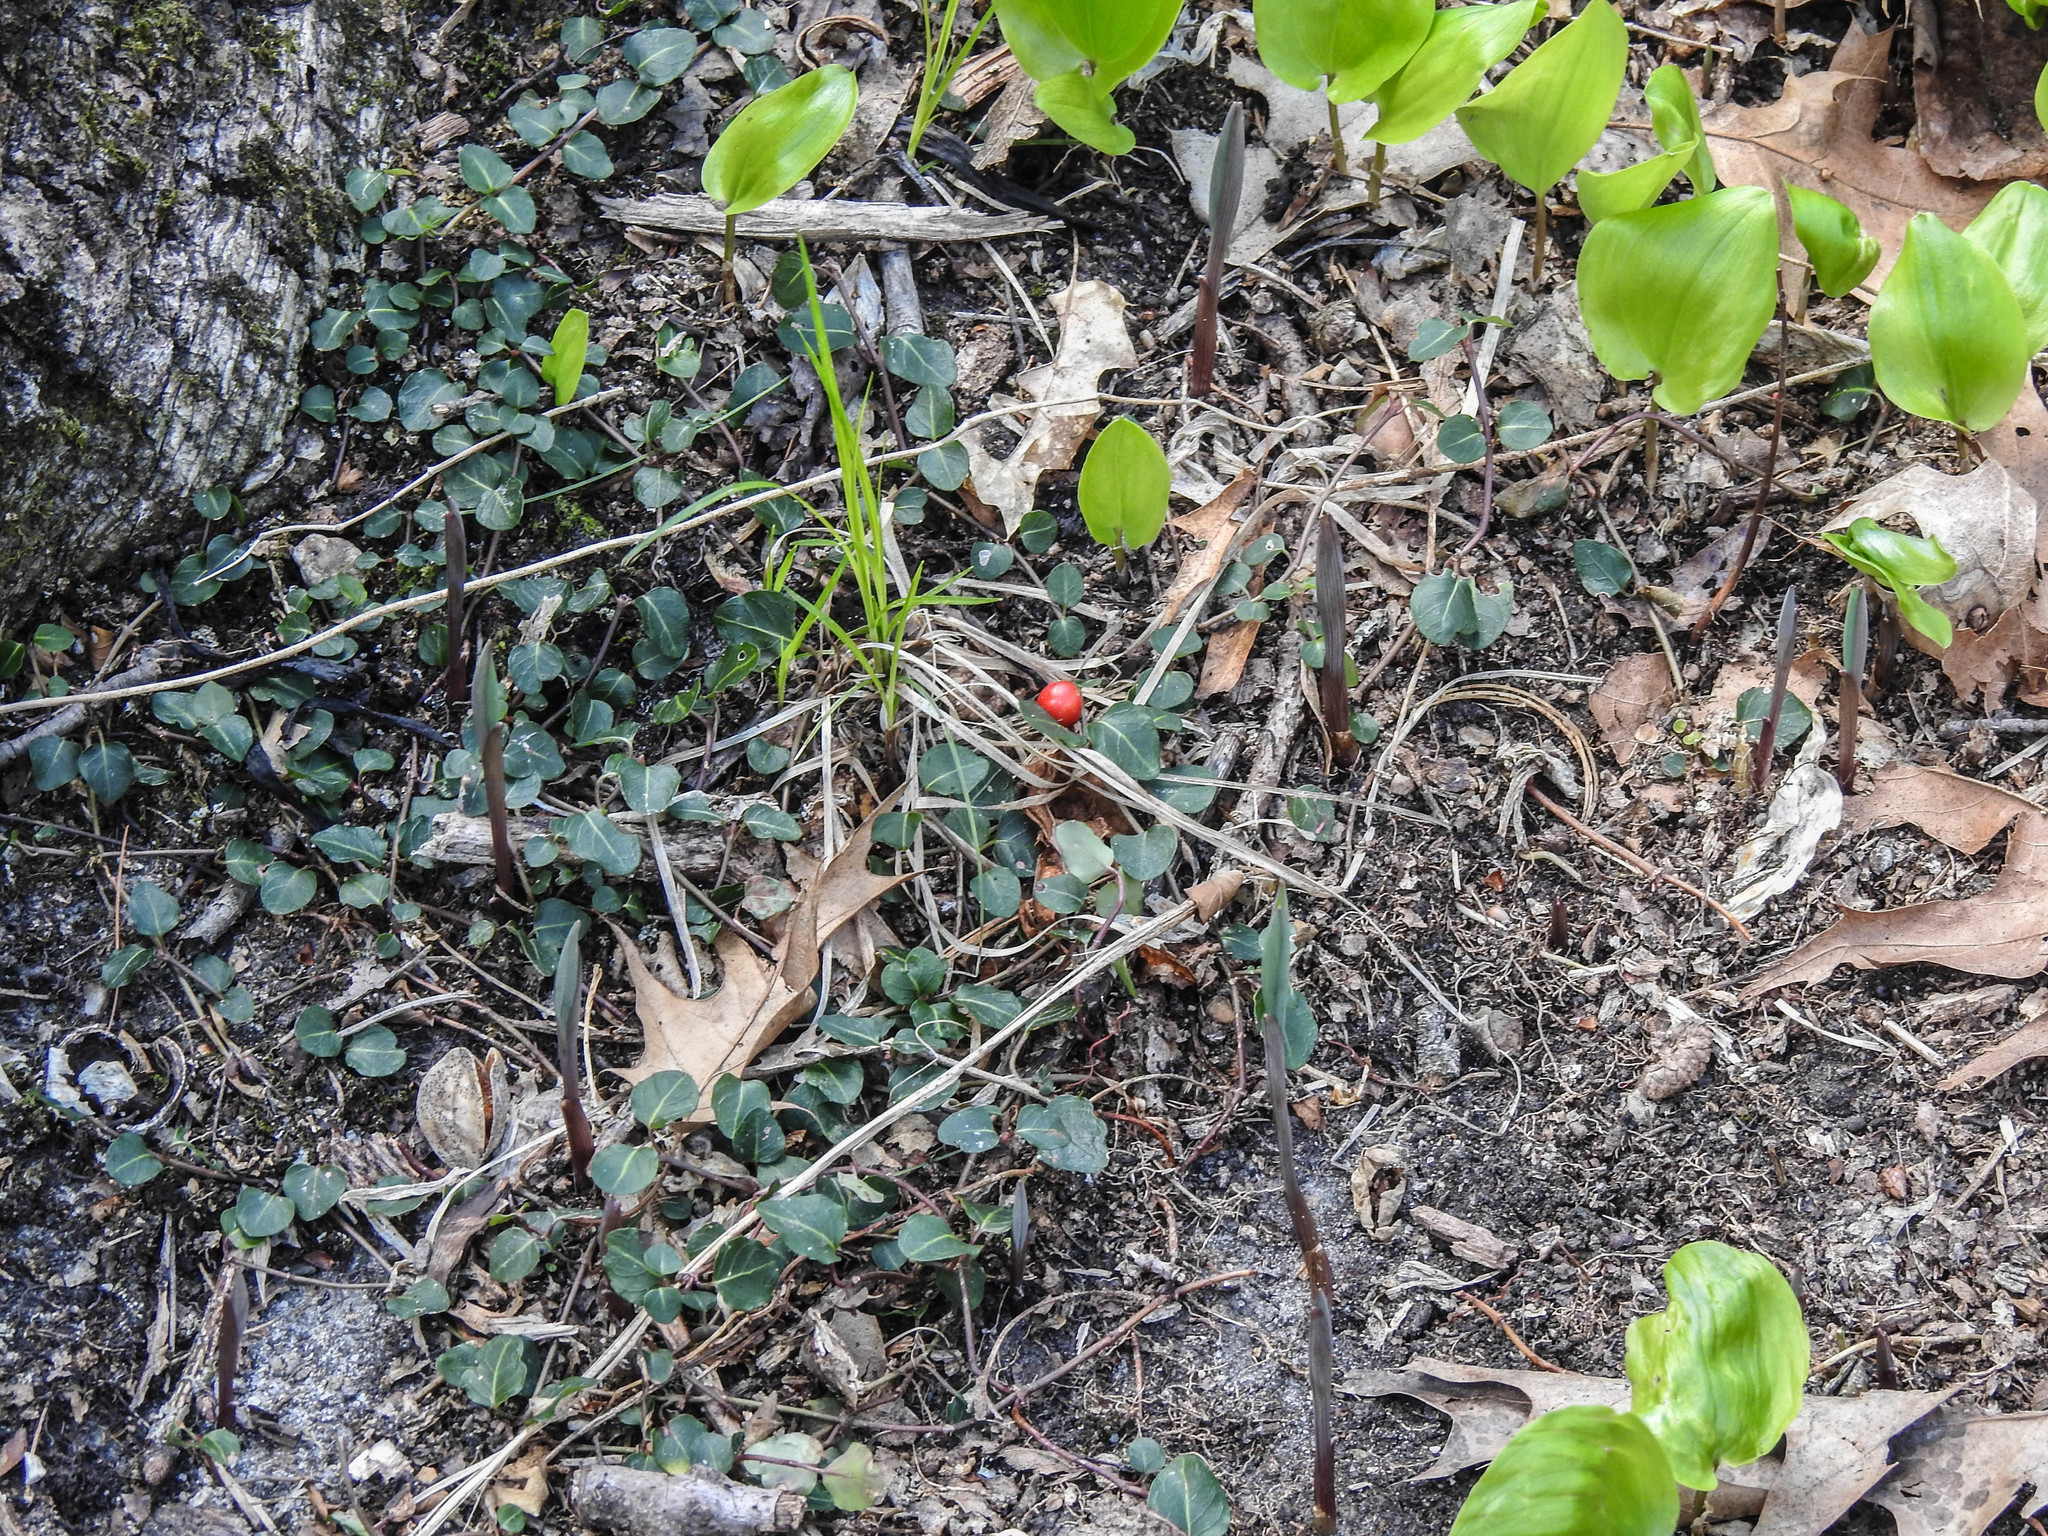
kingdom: Plantae
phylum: Tracheophyta
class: Magnoliopsida
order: Gentianales
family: Rubiaceae
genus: Mitchella
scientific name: Mitchella repens
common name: Partridge-berry
